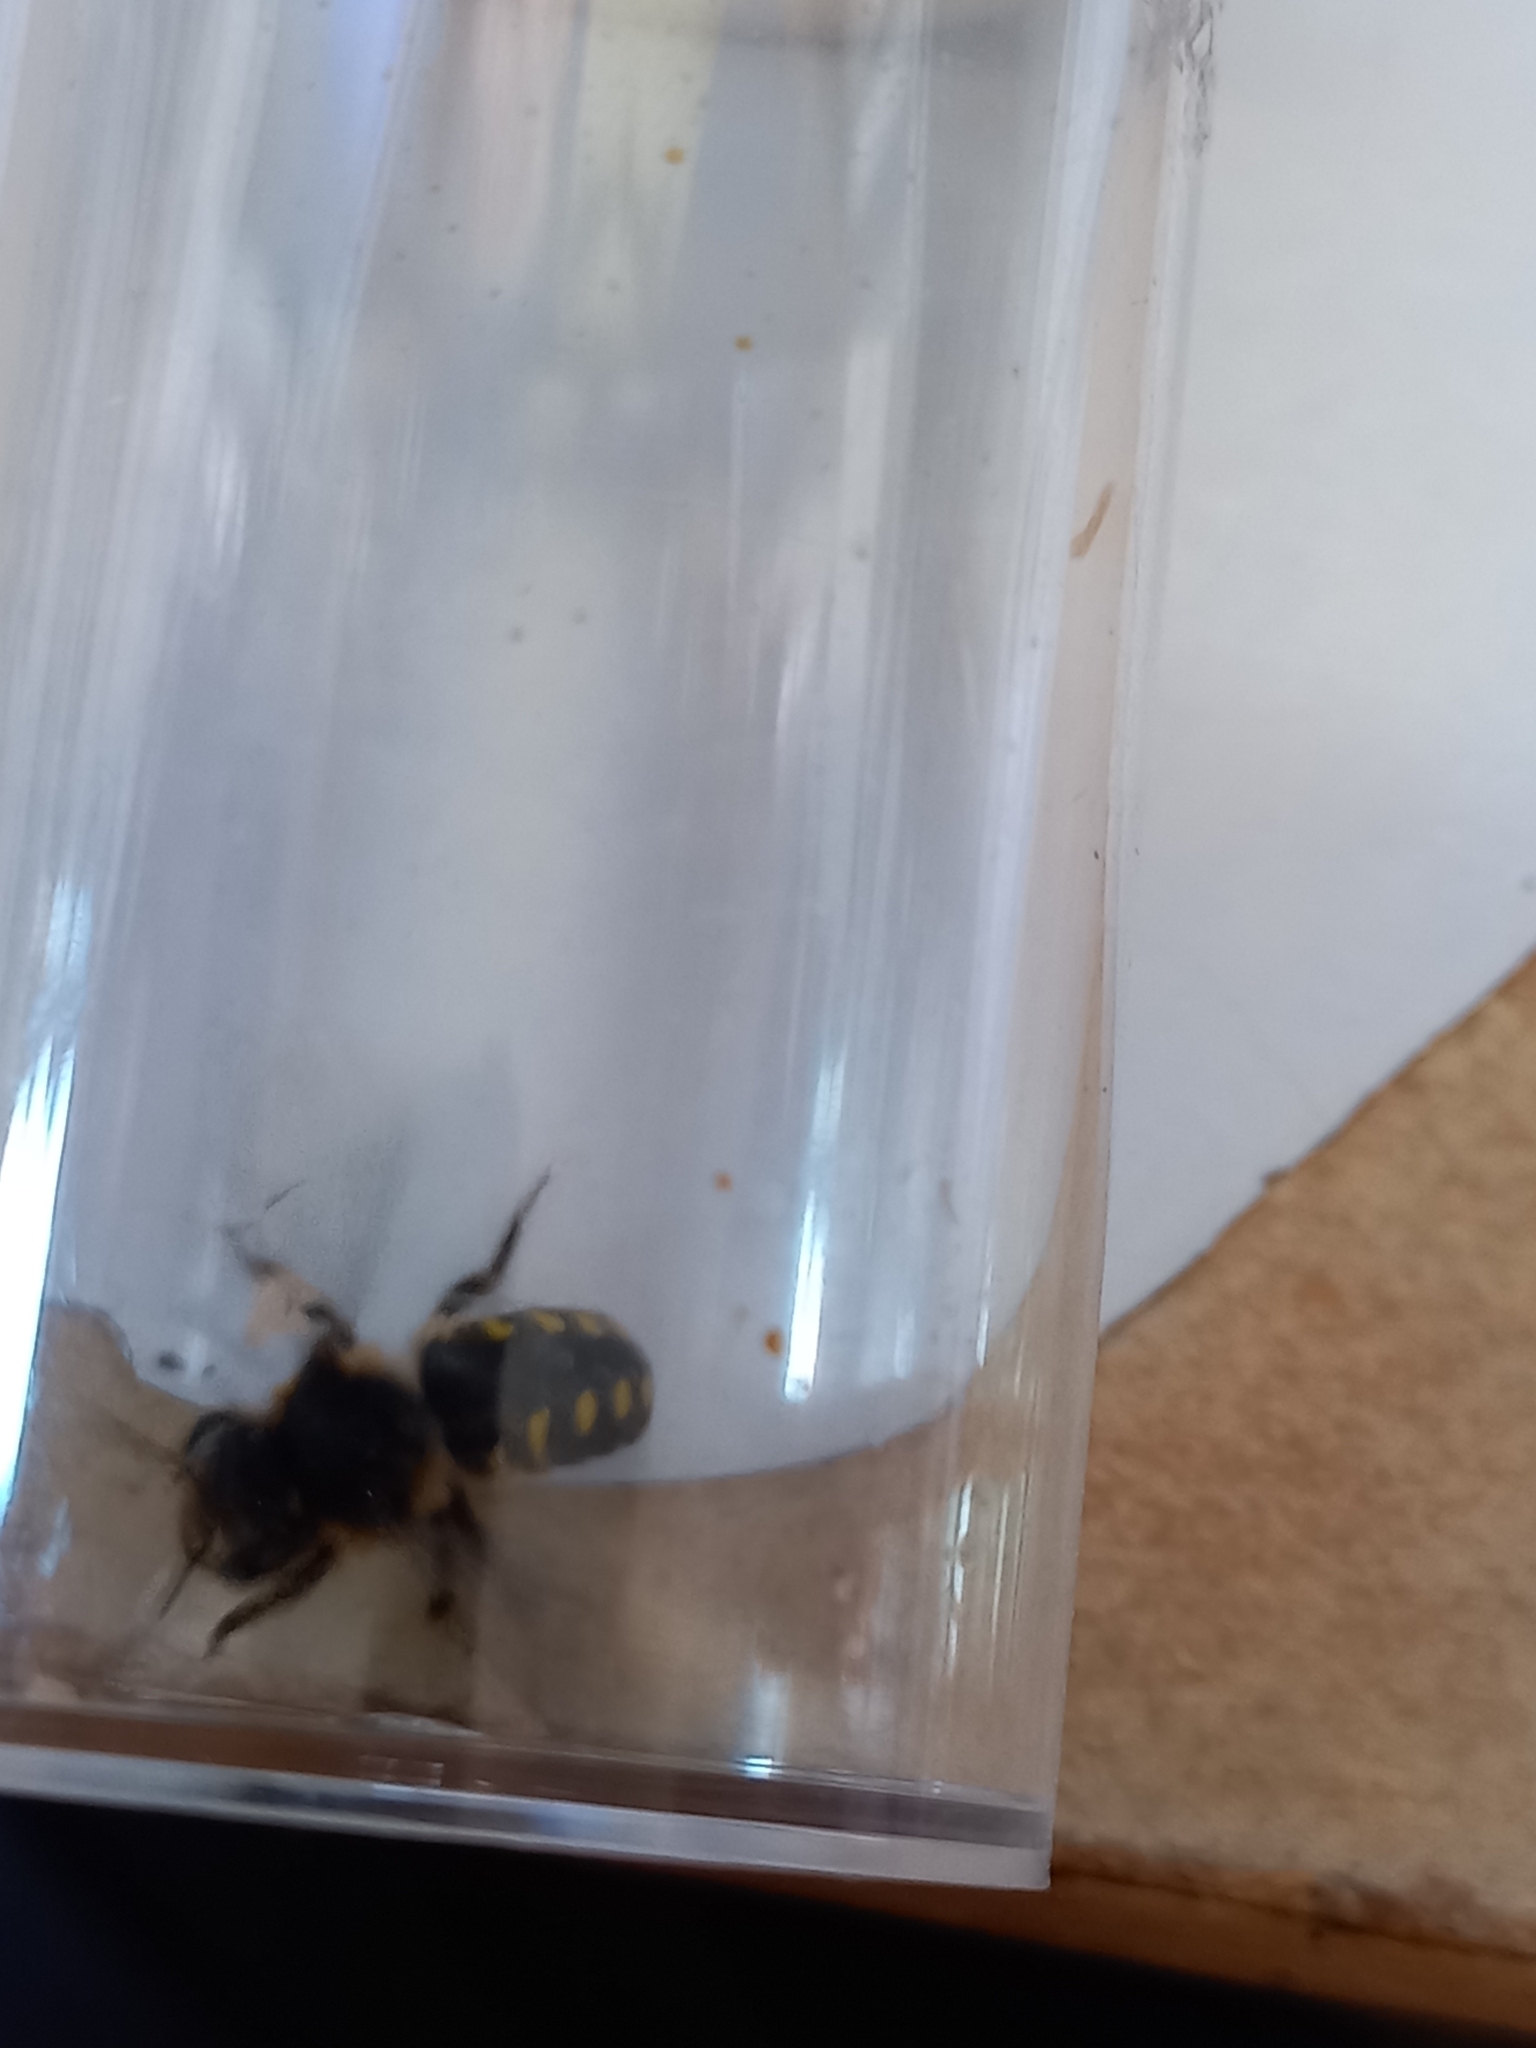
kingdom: Animalia
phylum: Arthropoda
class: Insecta
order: Hymenoptera
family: Megachilidae
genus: Anthidium
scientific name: Anthidium septemspinosum
